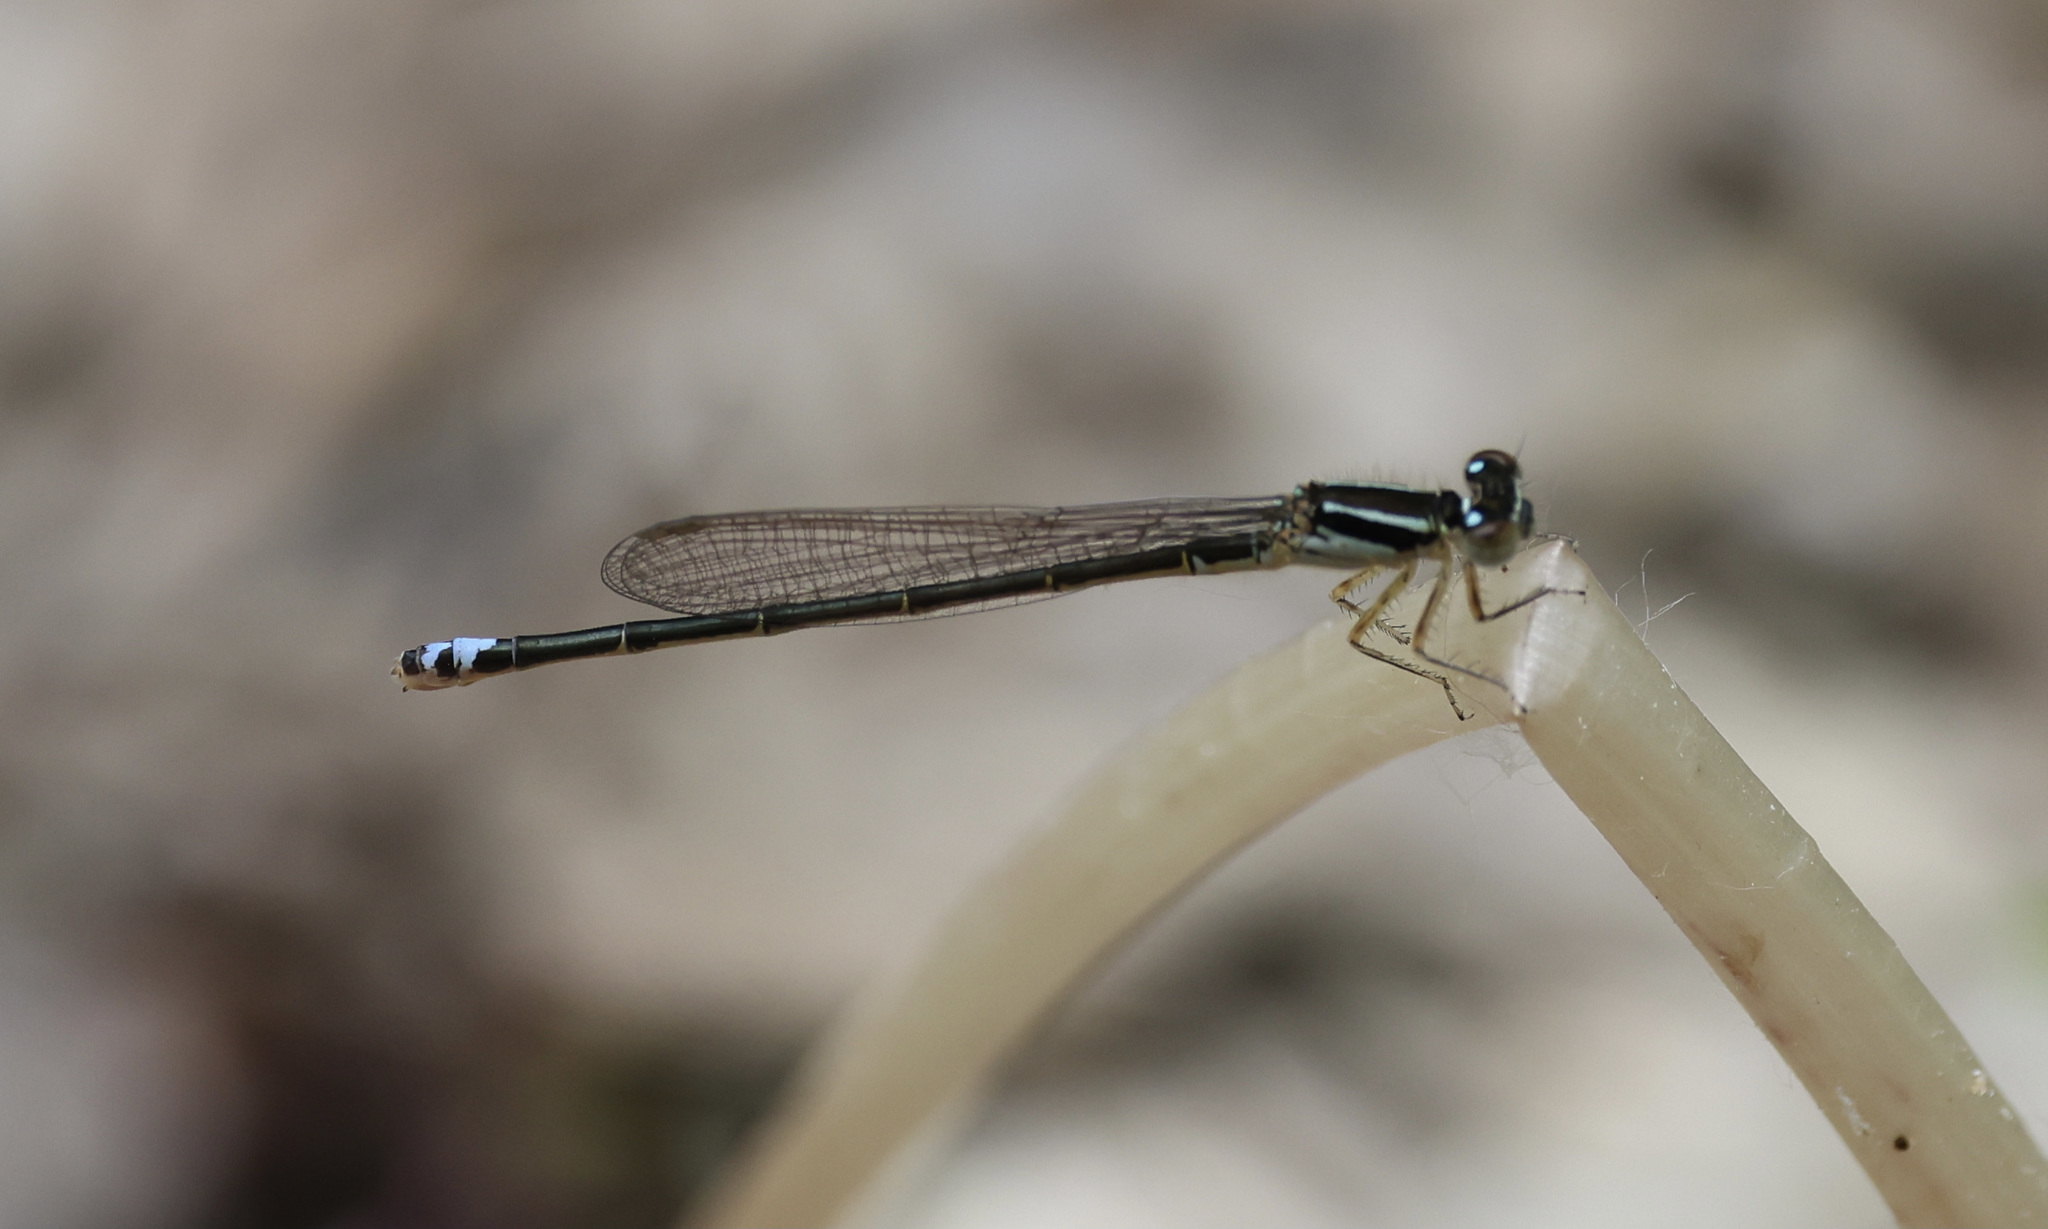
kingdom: Animalia
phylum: Arthropoda
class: Insecta
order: Odonata
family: Coenagrionidae
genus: Ischnura
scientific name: Ischnura verticalis
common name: Eastern forktail
